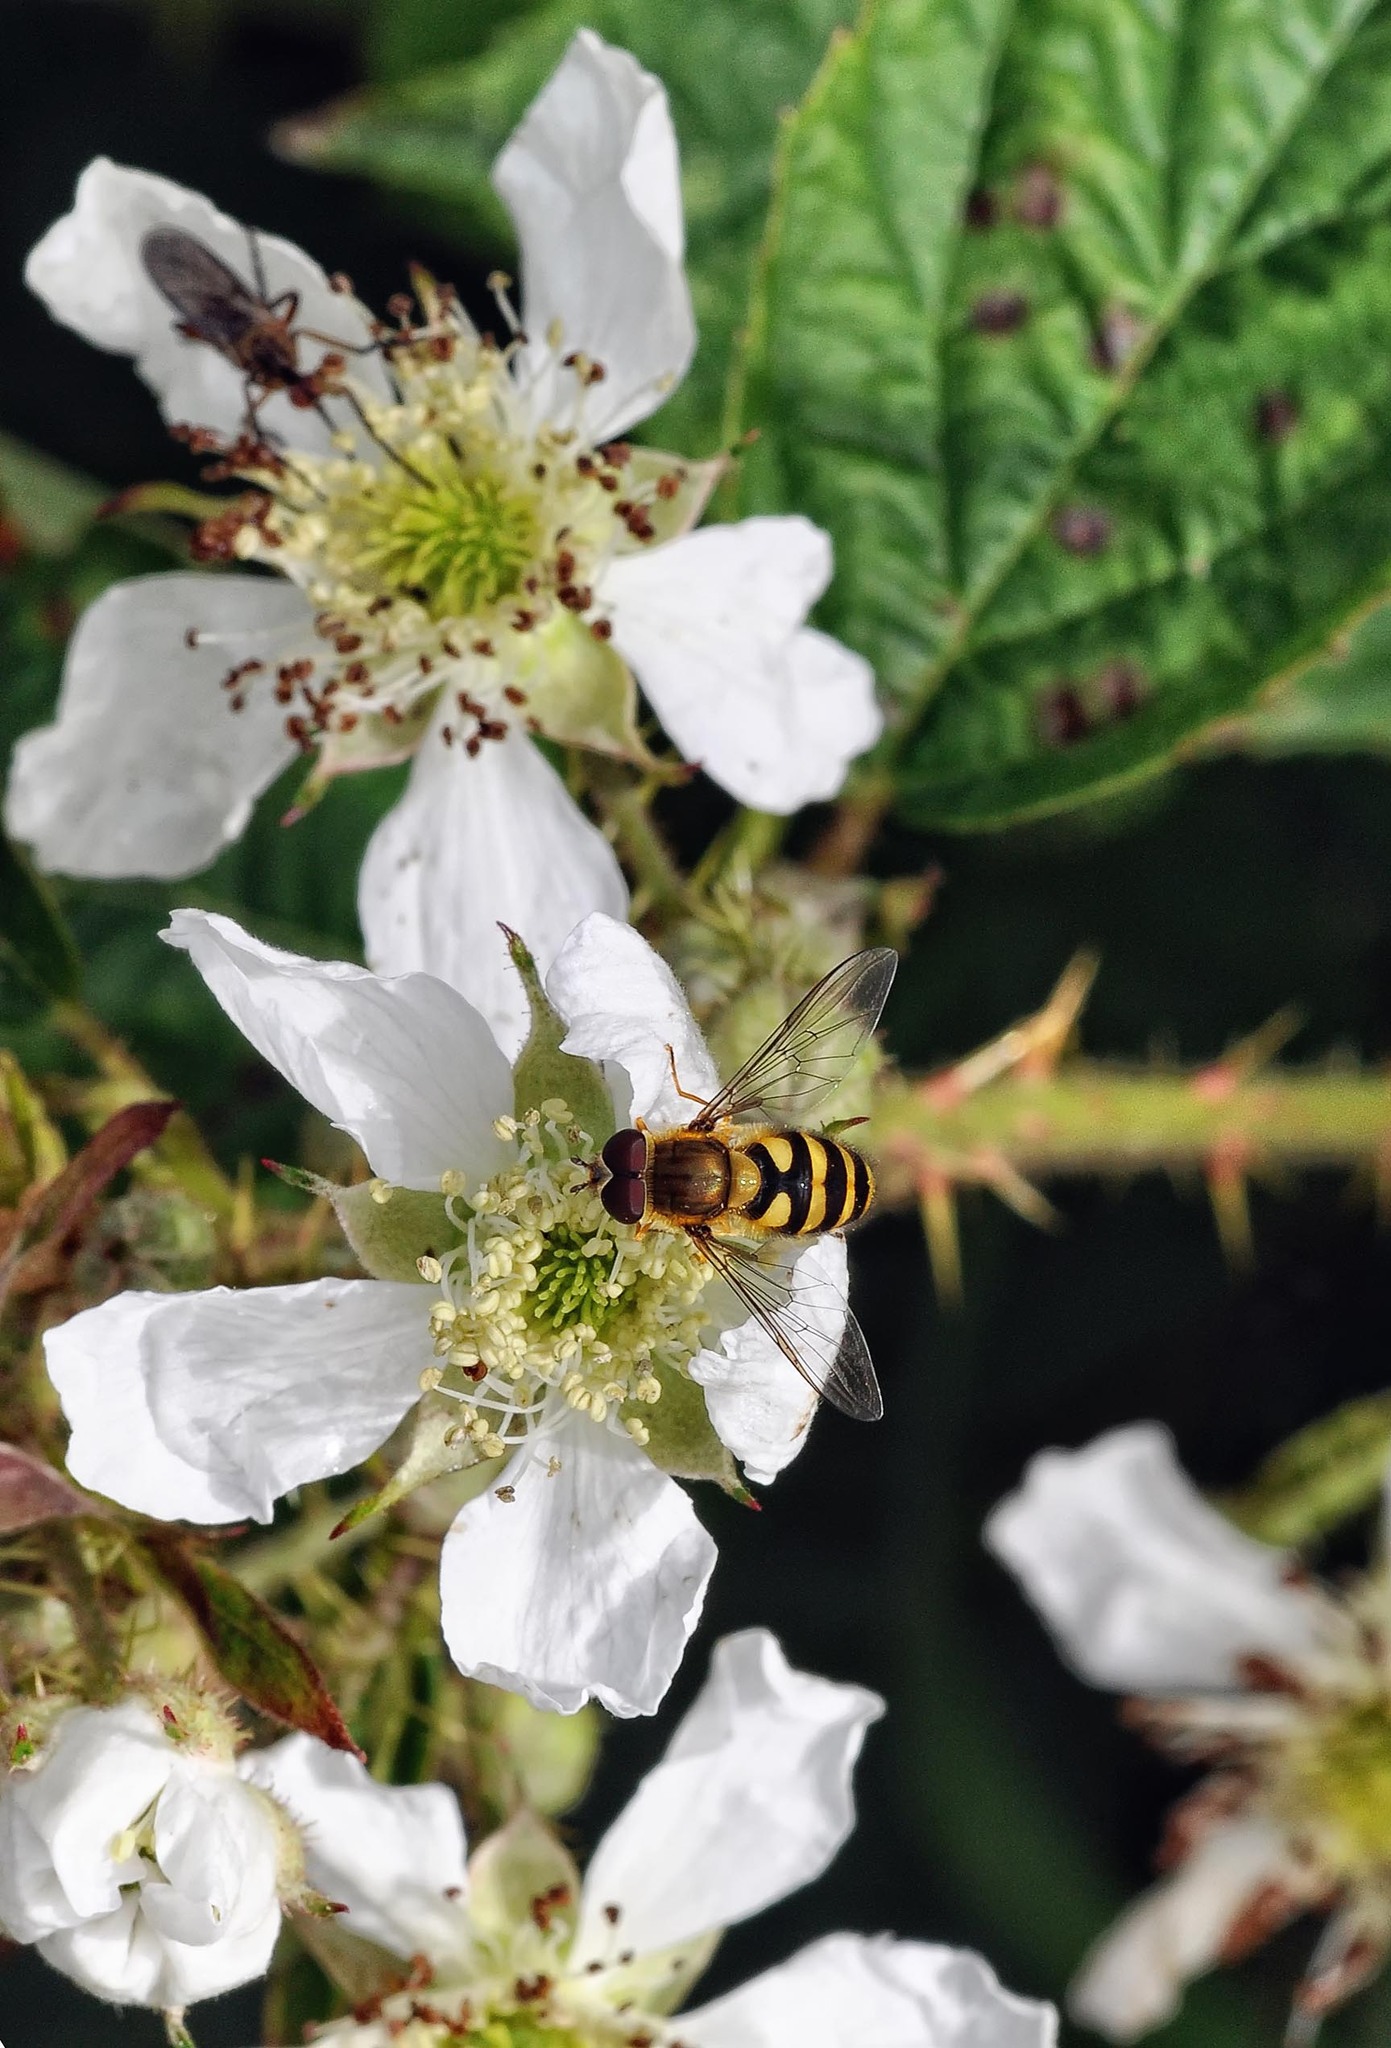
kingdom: Animalia
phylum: Arthropoda
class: Insecta
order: Diptera
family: Syrphidae
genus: Syrphus
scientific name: Syrphus
